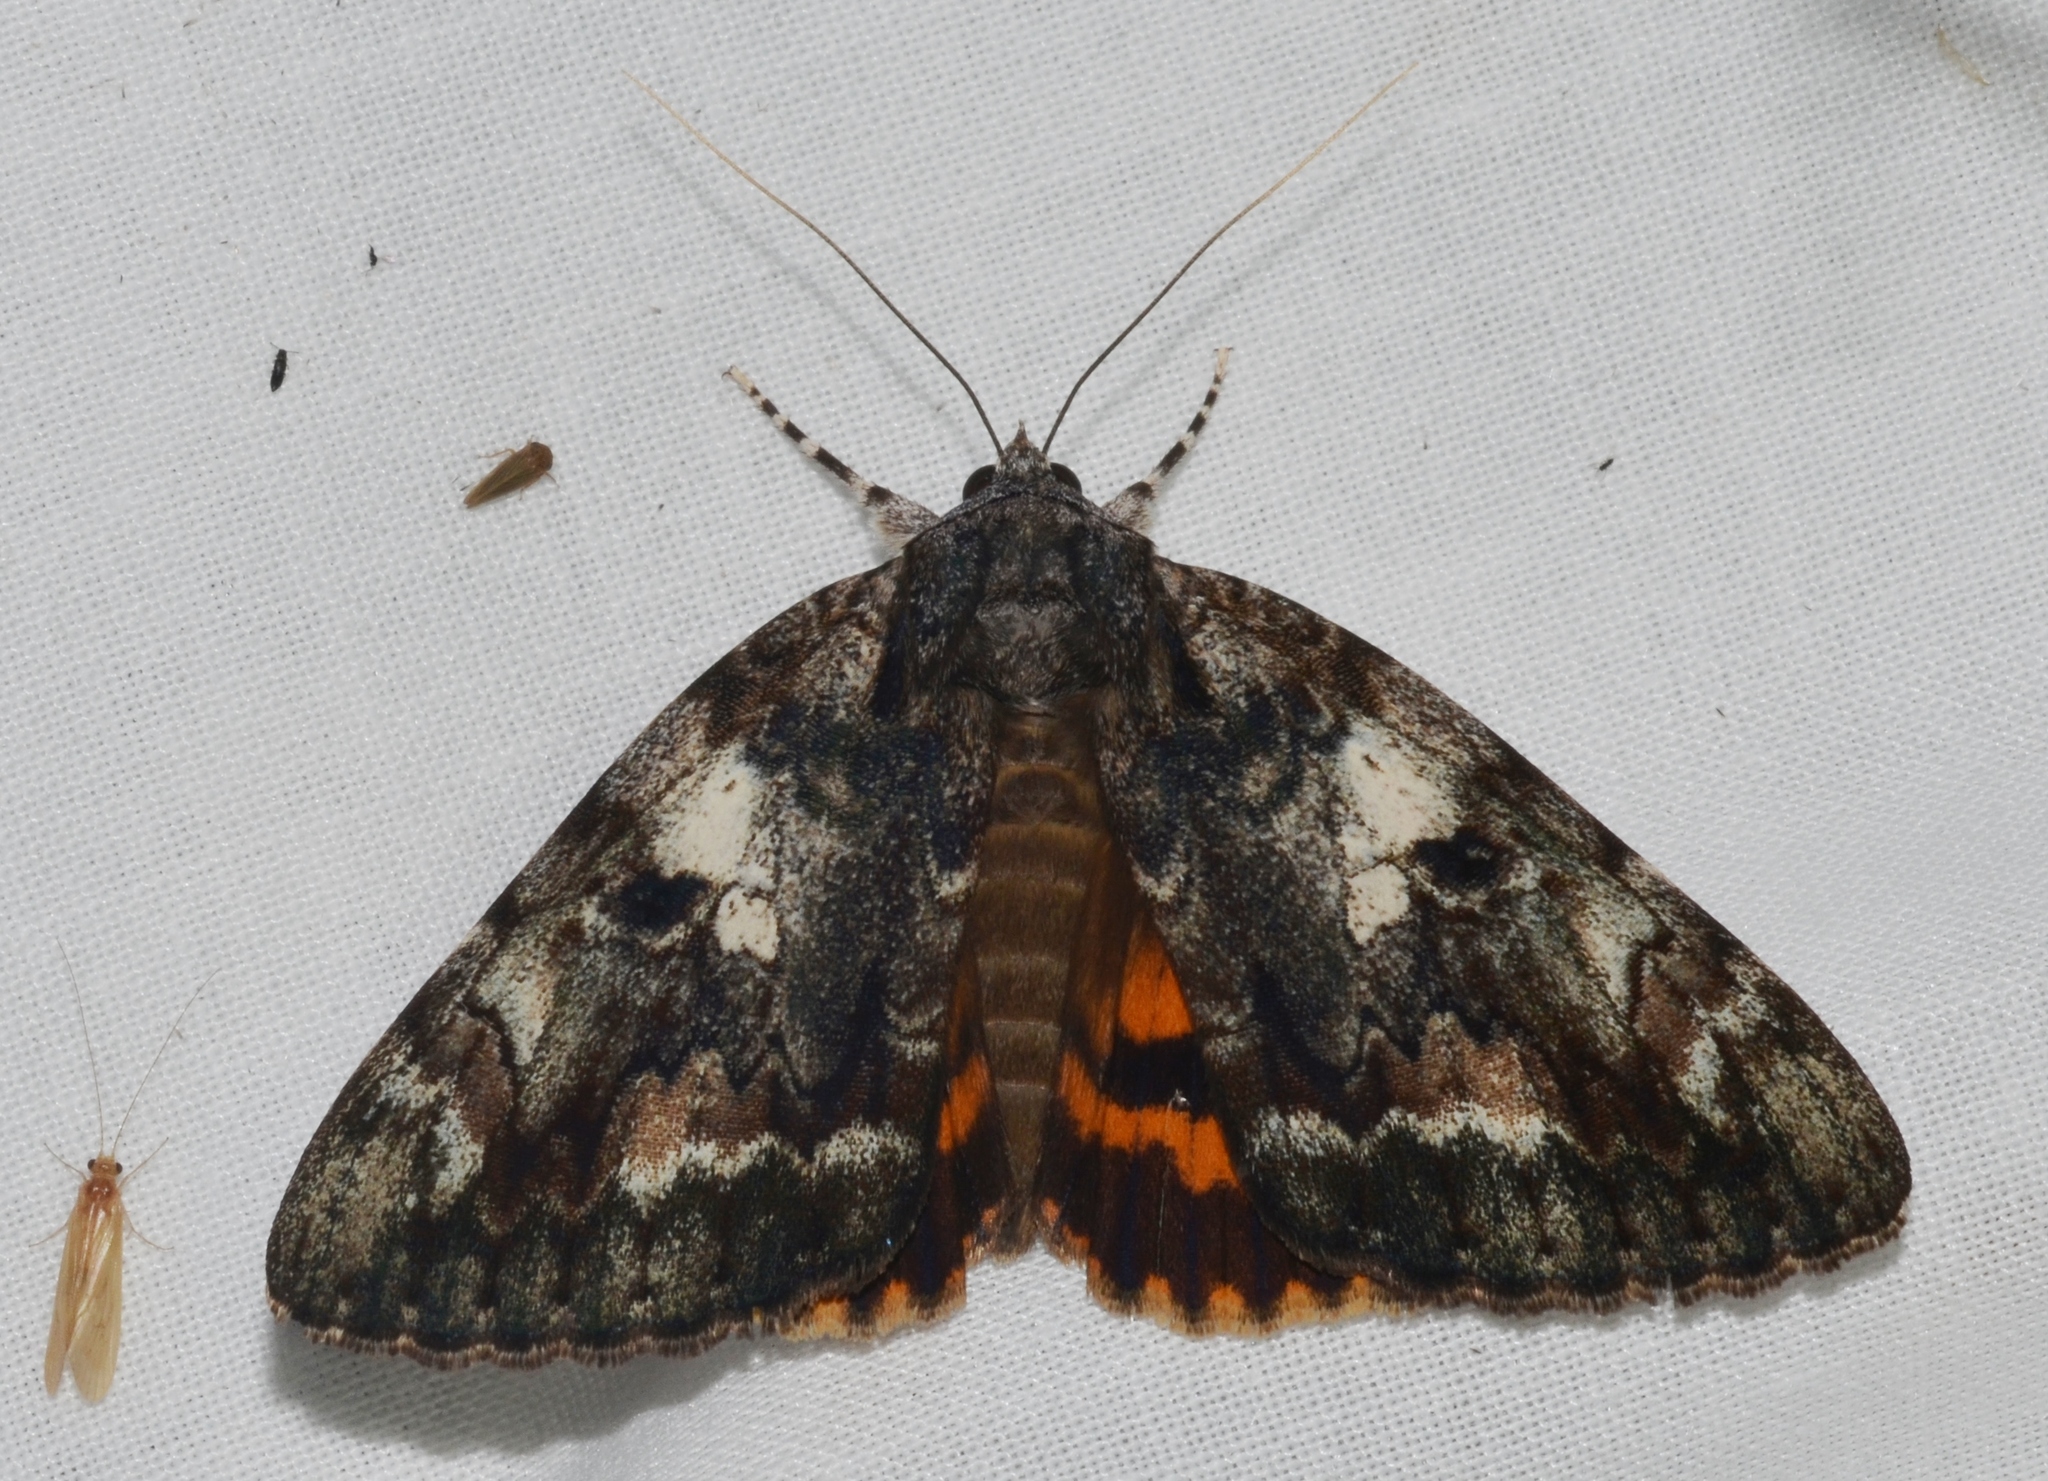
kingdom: Animalia
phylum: Arthropoda
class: Insecta
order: Lepidoptera
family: Erebidae
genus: Catocala
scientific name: Catocala palaeogama
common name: Oldwife underwing
